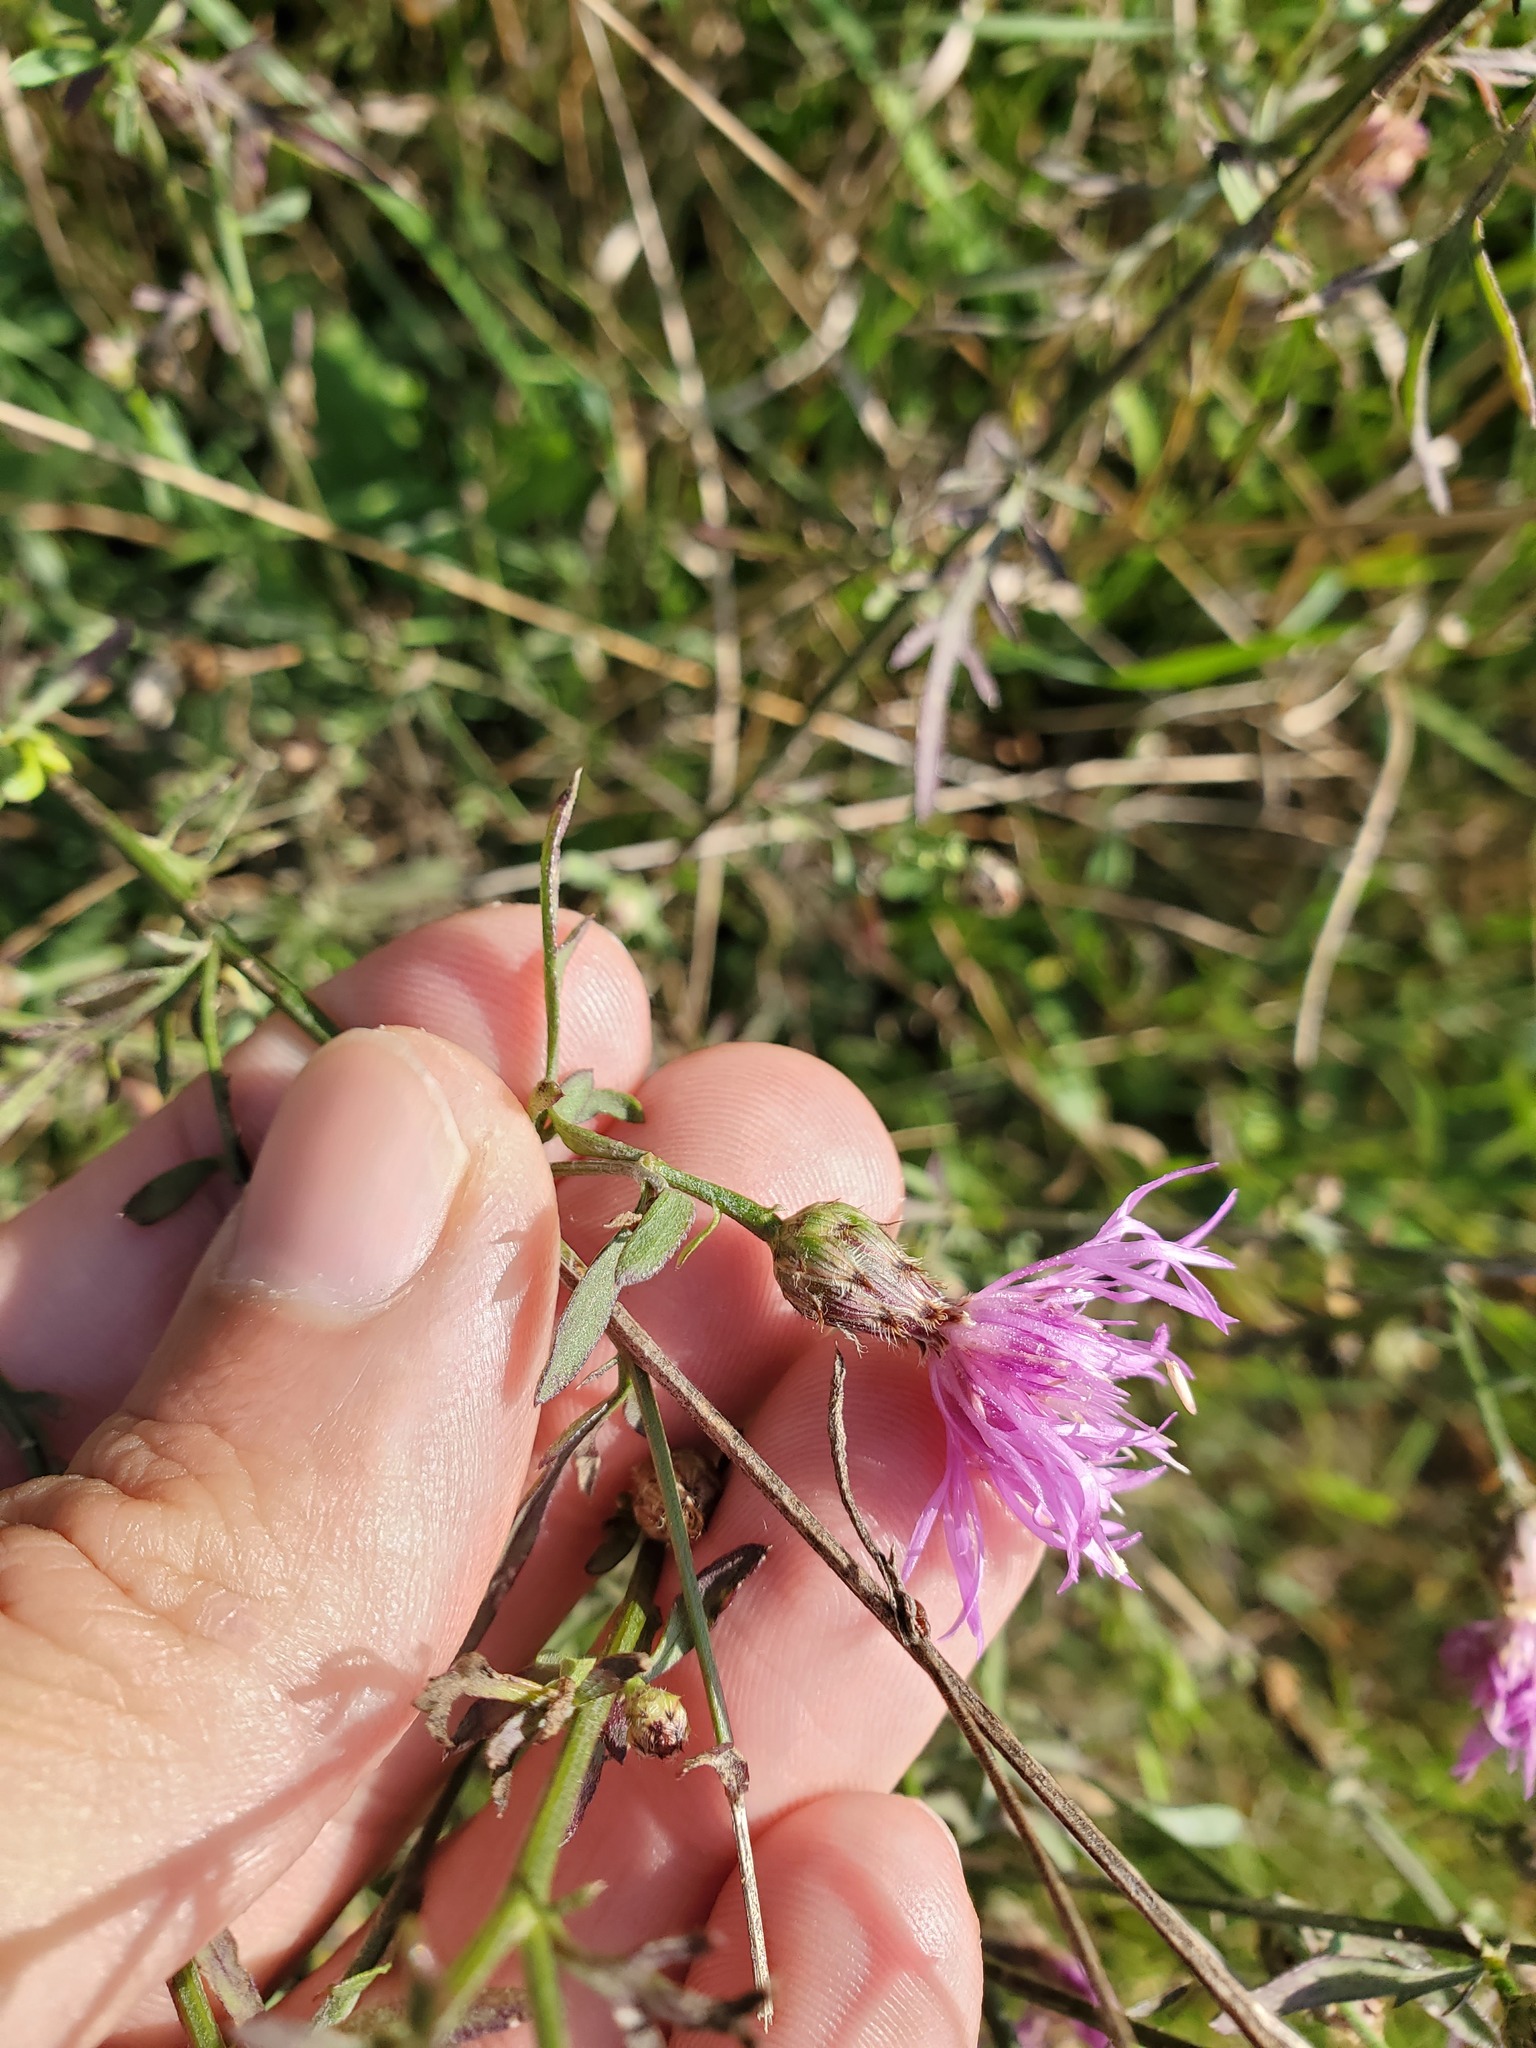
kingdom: Plantae
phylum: Tracheophyta
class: Magnoliopsida
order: Asterales
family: Asteraceae
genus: Centaurea
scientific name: Centaurea stoebe
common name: Spotted knapweed
